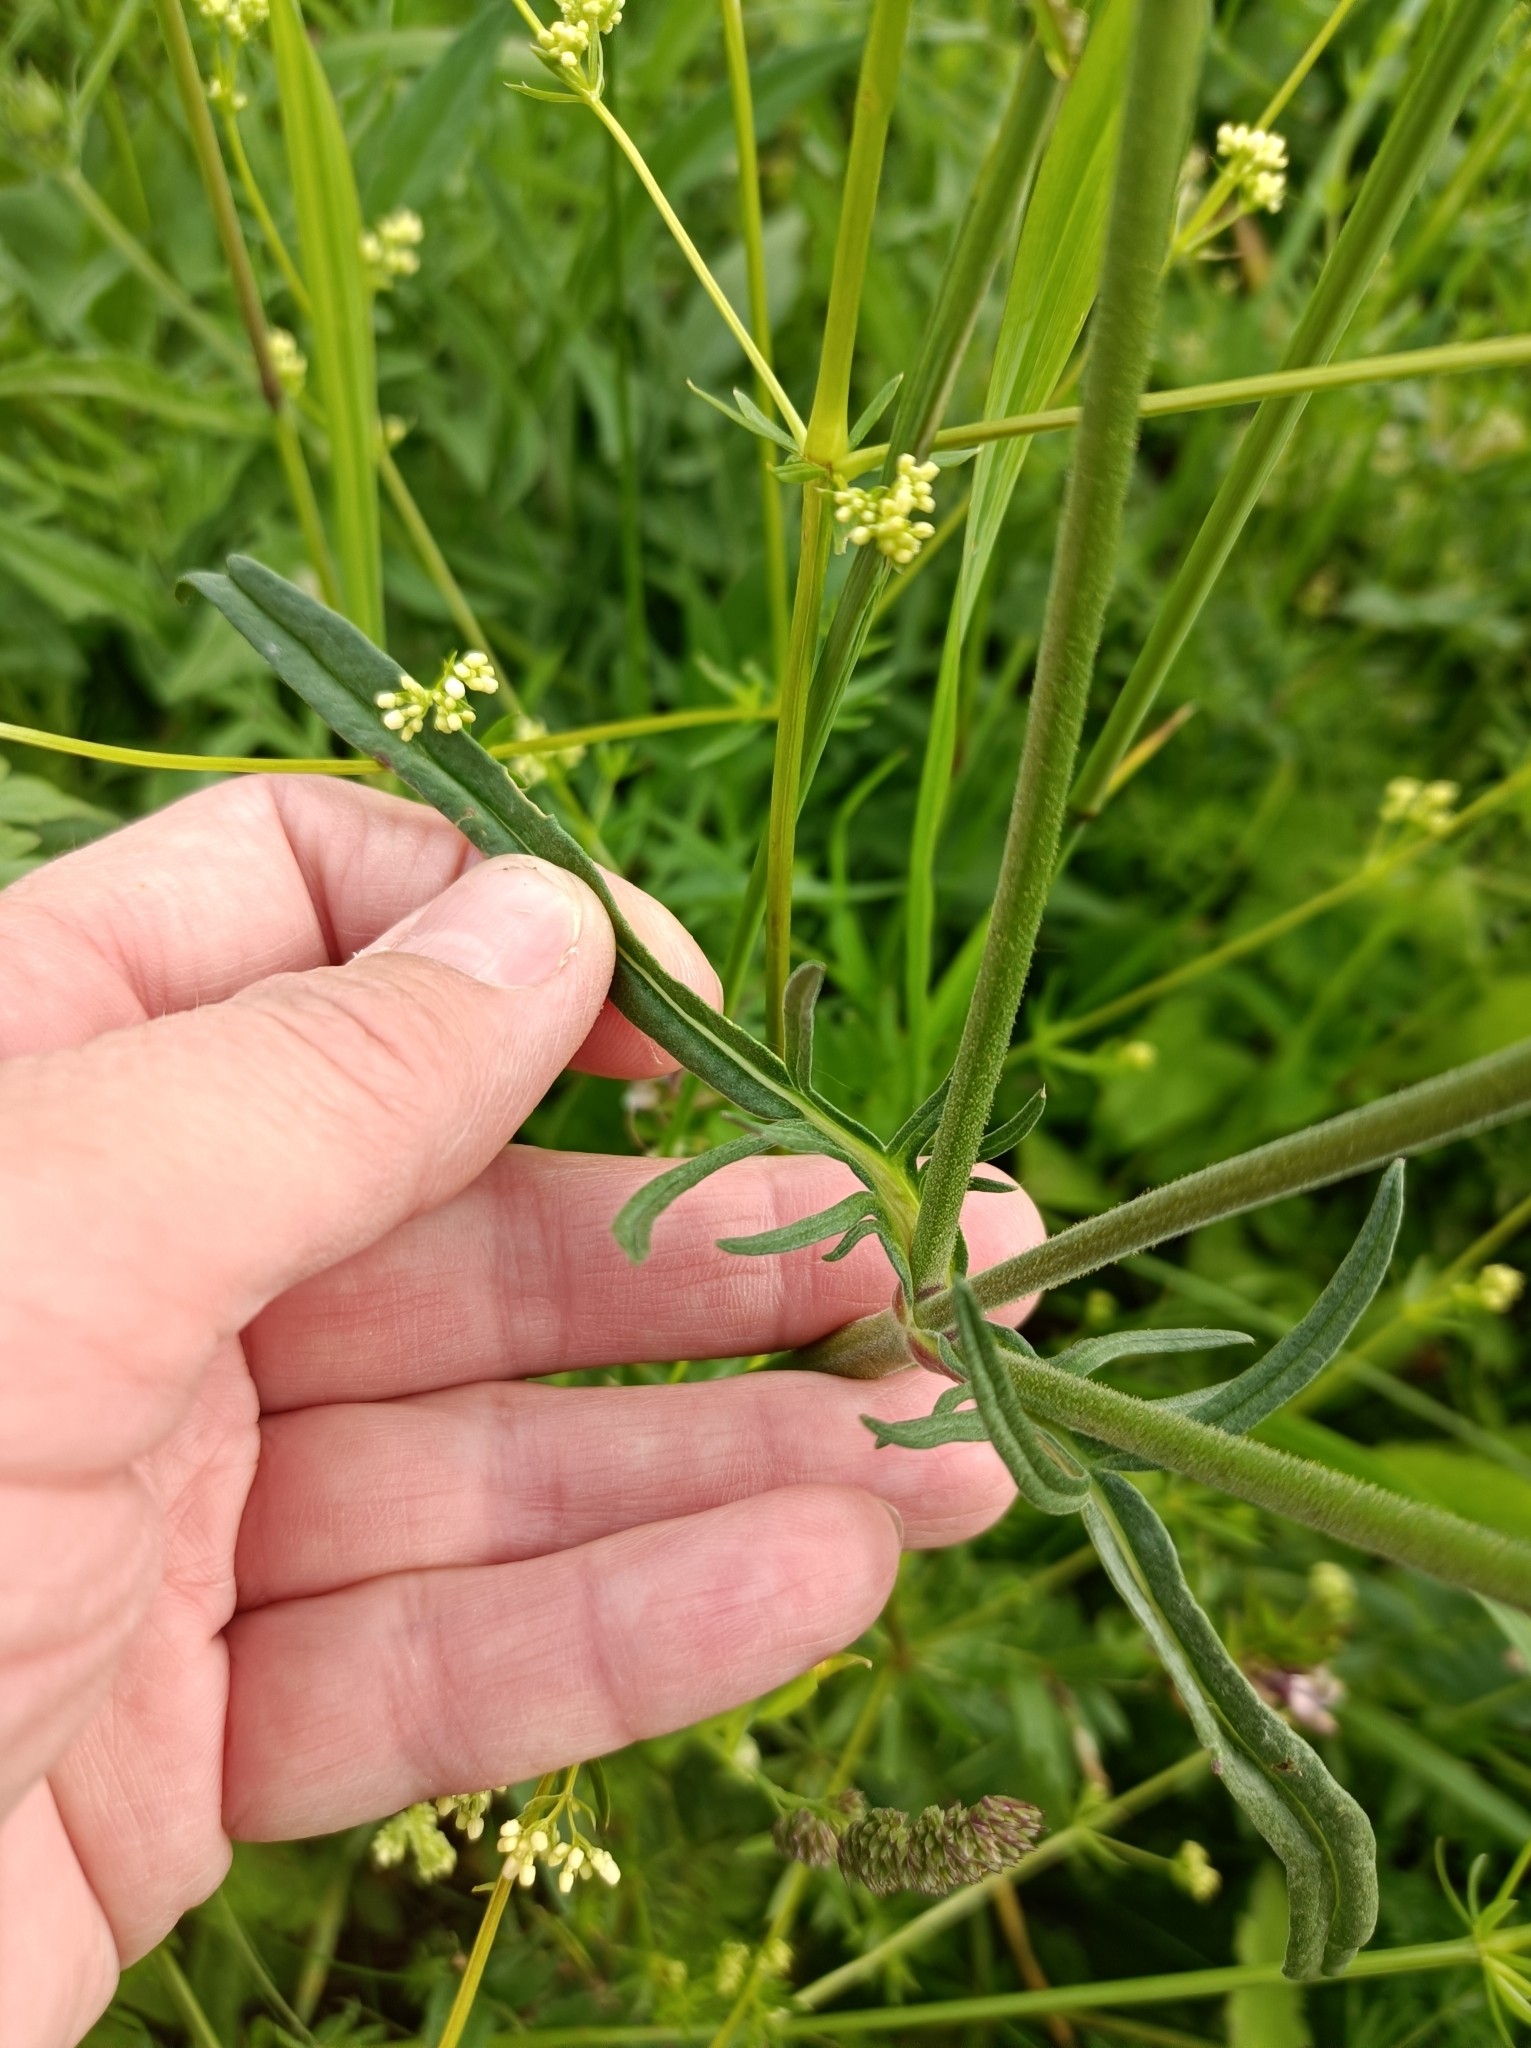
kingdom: Plantae
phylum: Tracheophyta
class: Magnoliopsida
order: Dipsacales
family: Caprifoliaceae
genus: Knautia
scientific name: Knautia arvensis
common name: Field scabiosa
